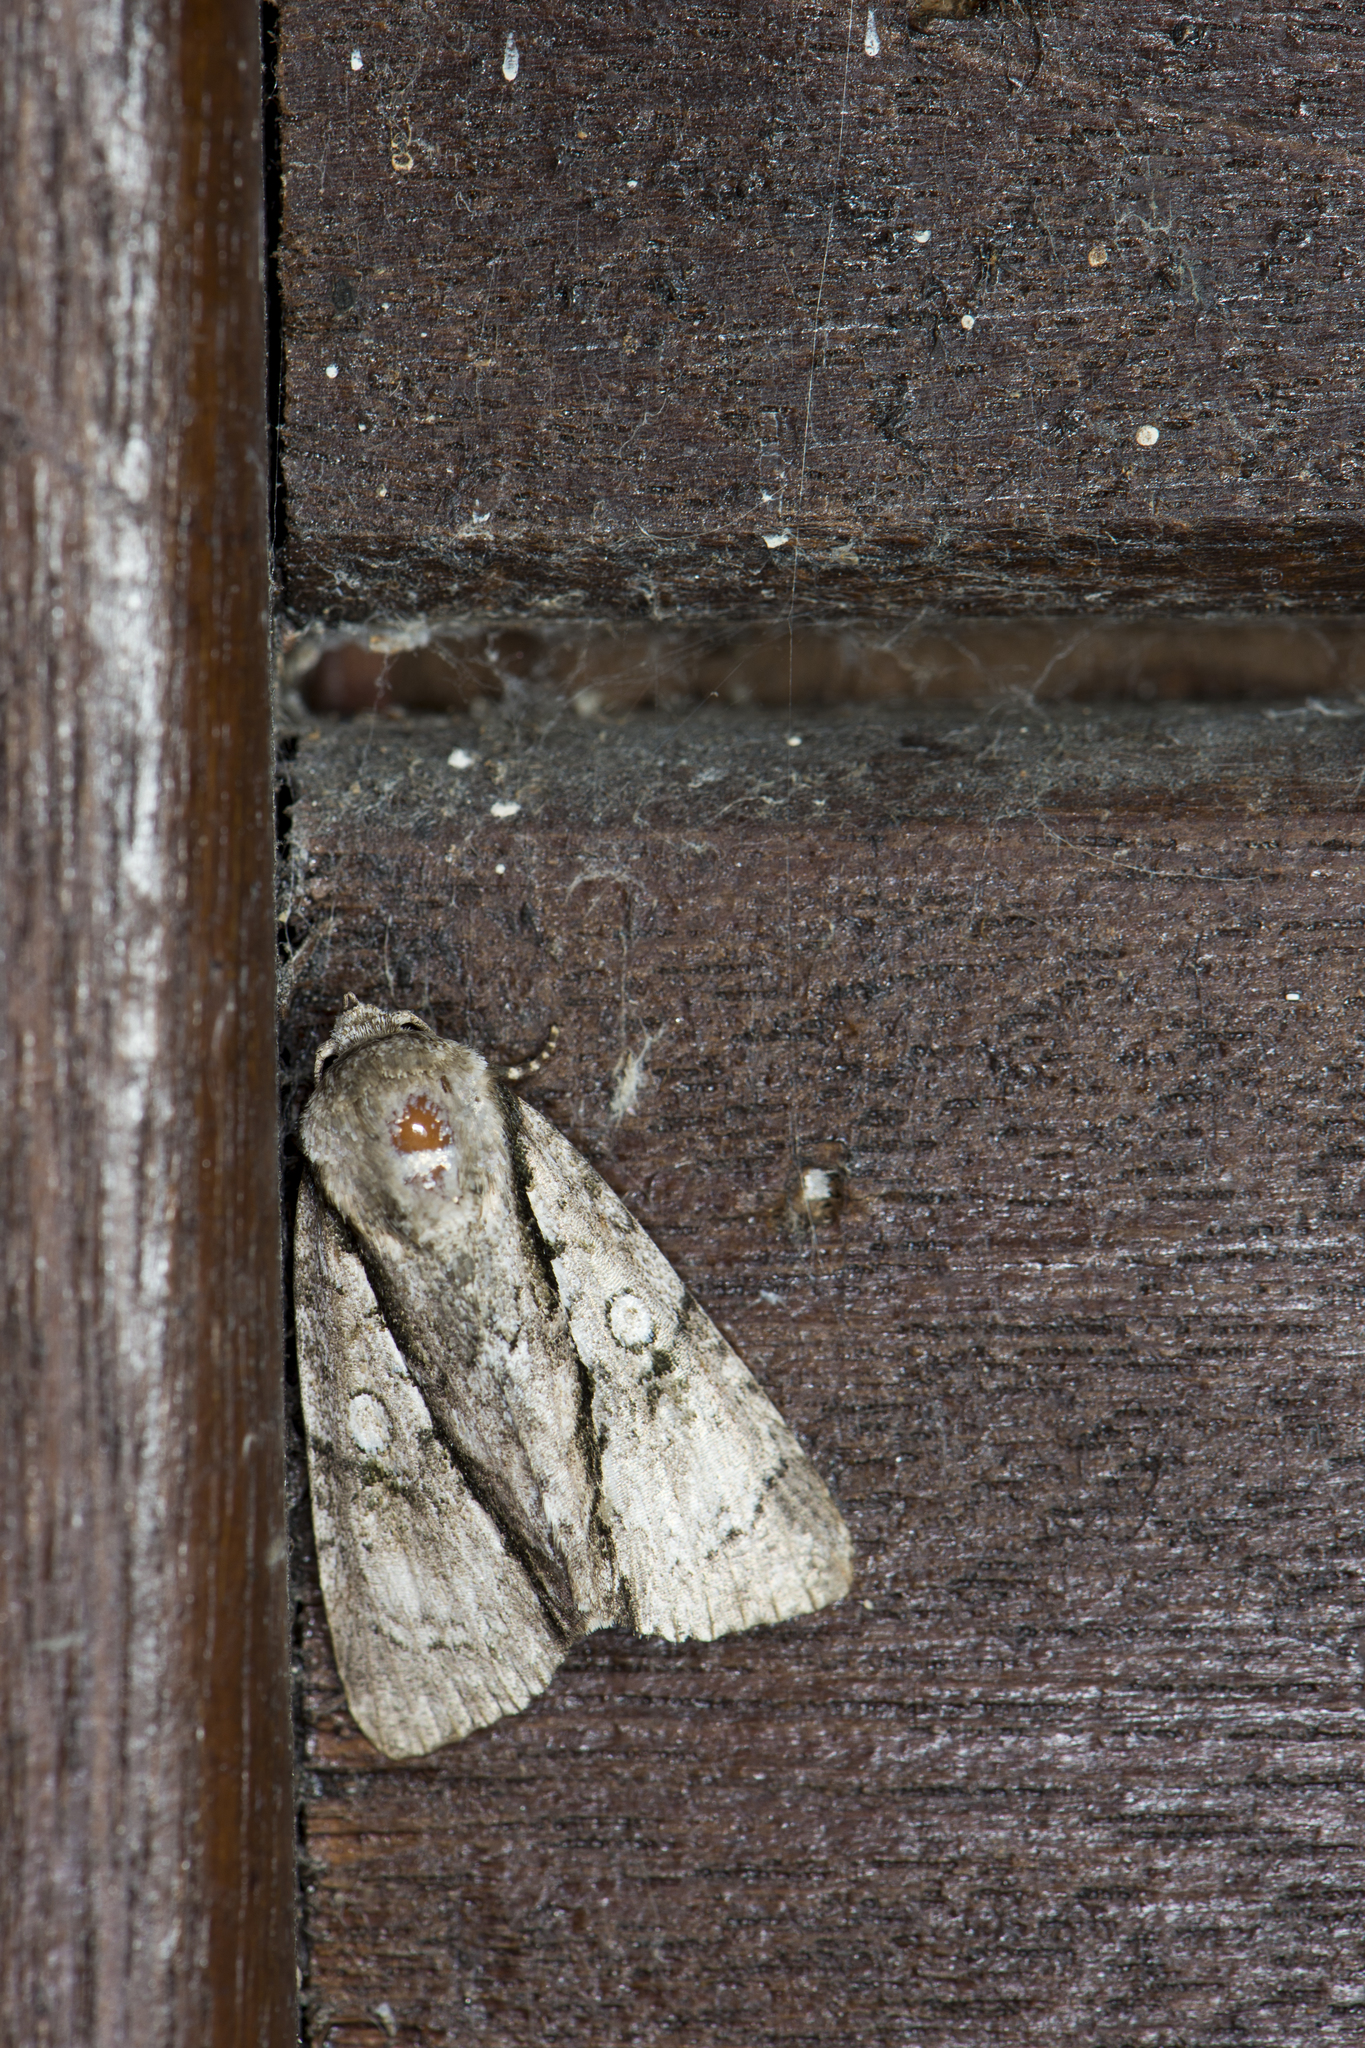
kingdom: Animalia
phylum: Arthropoda
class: Insecta
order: Lepidoptera
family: Noctuidae
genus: Fascionycta
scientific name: Fascionycta fasciata
